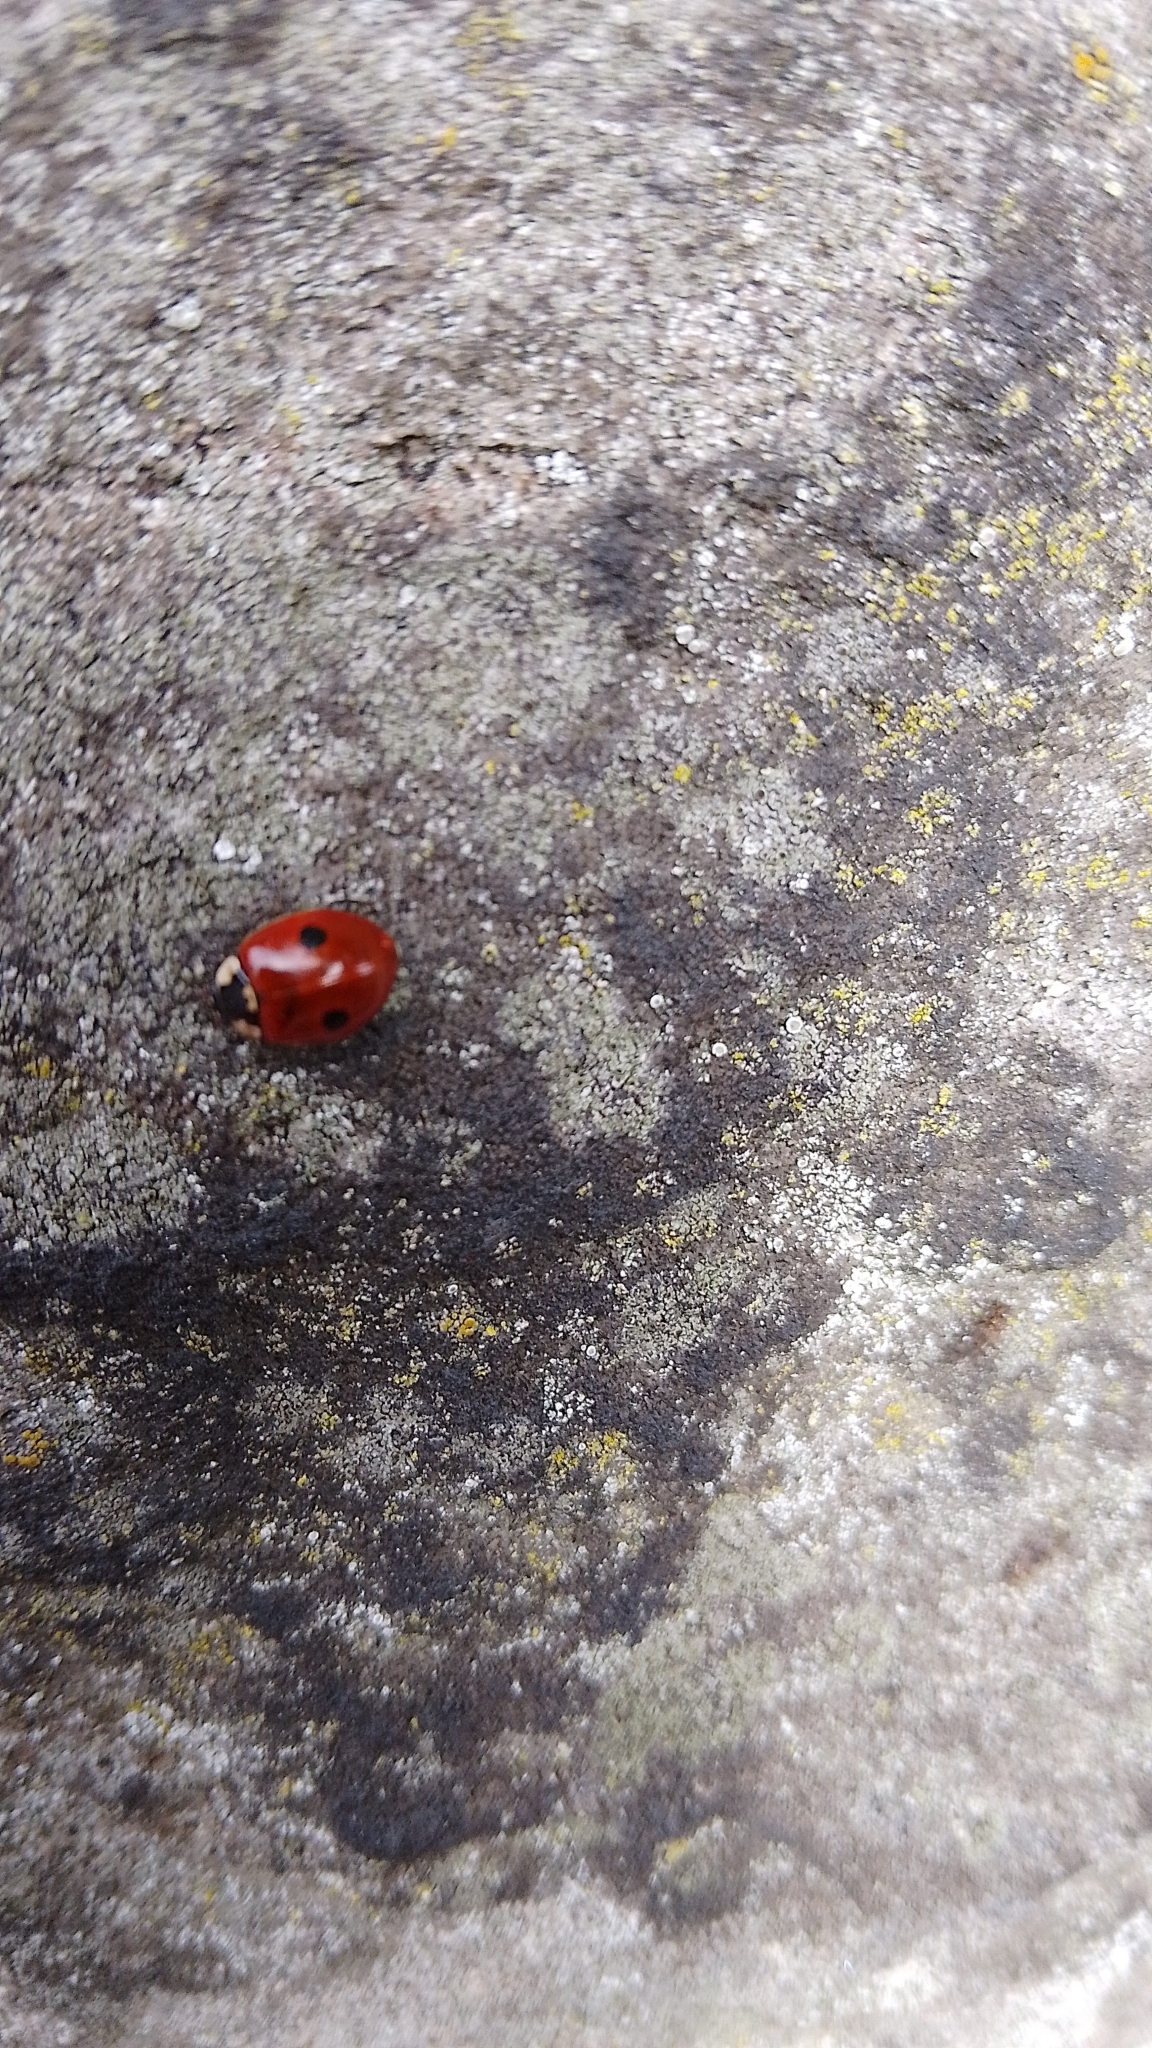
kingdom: Animalia
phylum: Arthropoda
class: Insecta
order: Coleoptera
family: Coccinellidae
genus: Adalia
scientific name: Adalia bipunctata
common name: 2-spot ladybird
